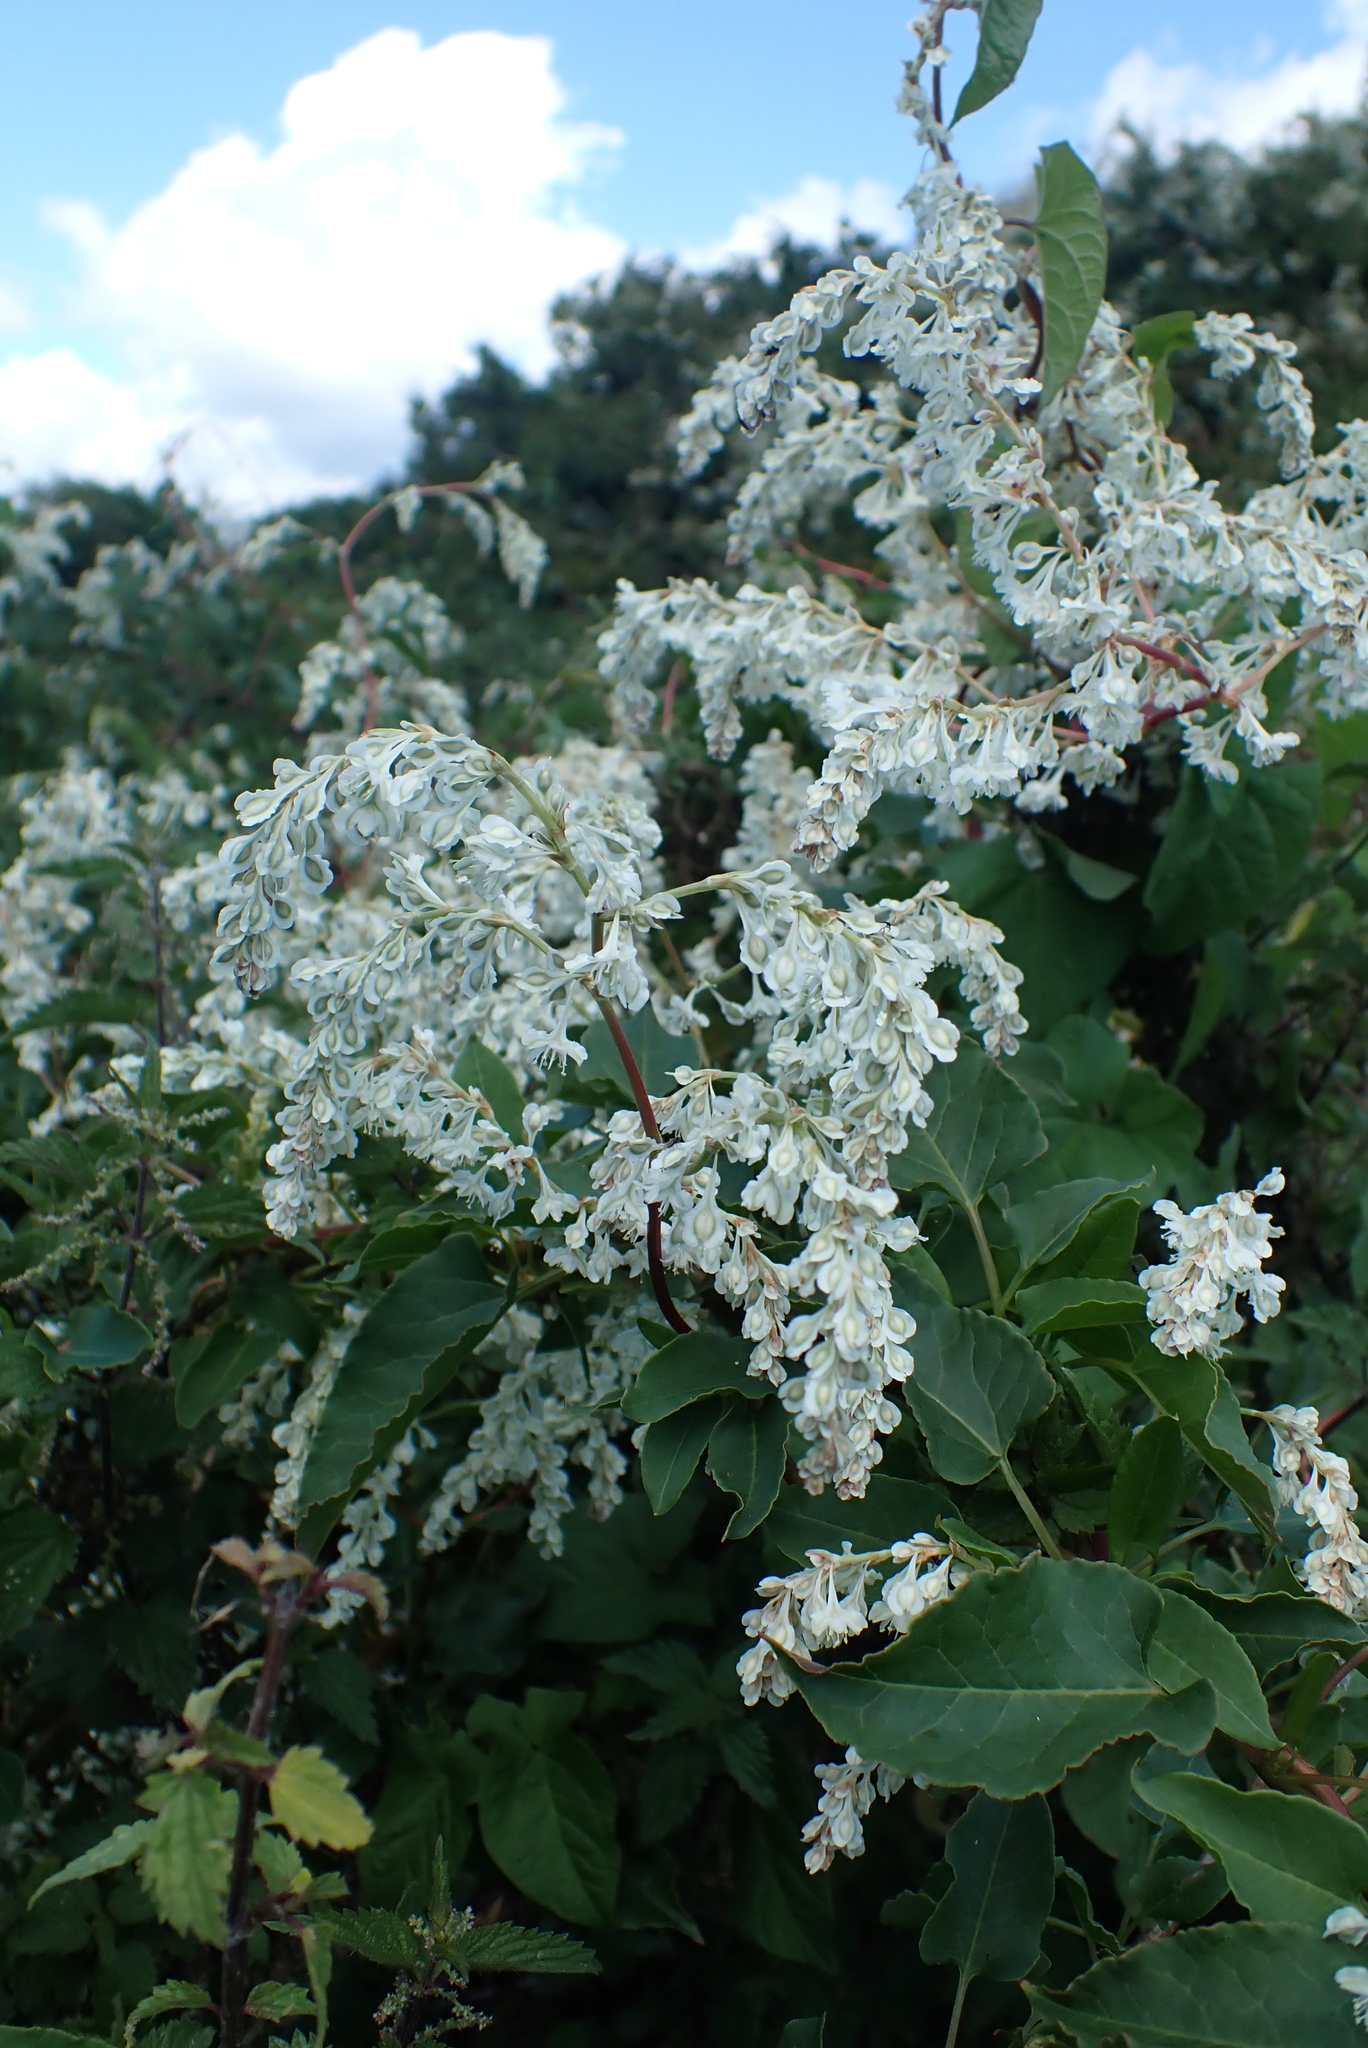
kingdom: Plantae
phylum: Tracheophyta
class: Magnoliopsida
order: Caryophyllales
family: Polygonaceae
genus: Fallopia
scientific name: Fallopia baldschuanica
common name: Russian-vine
